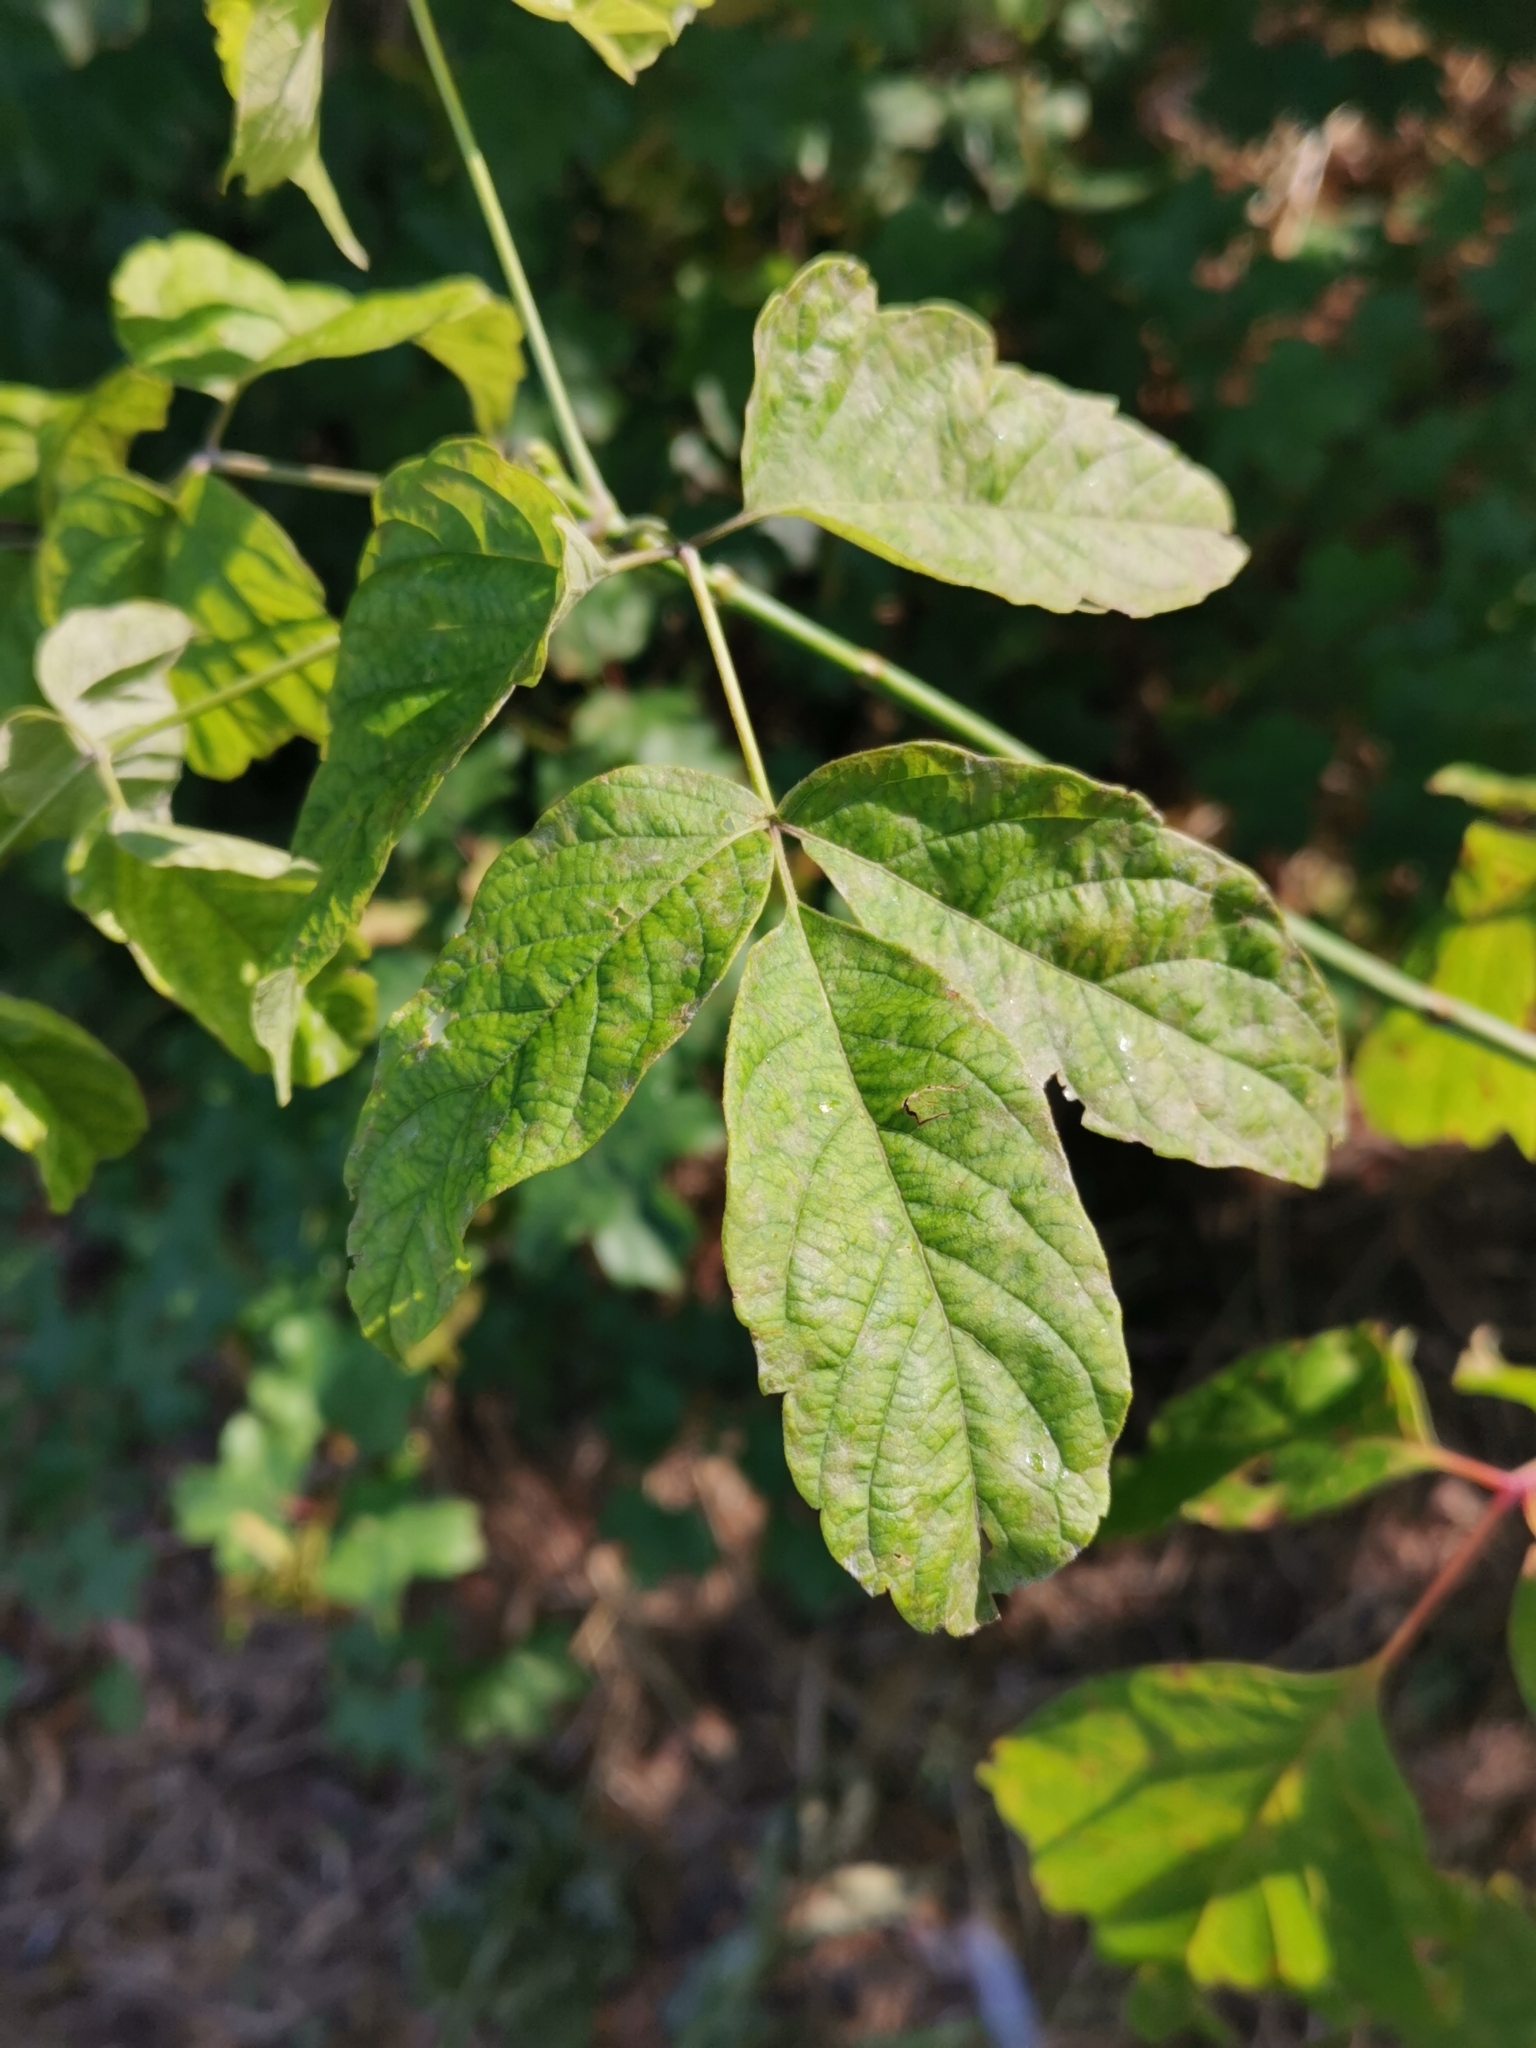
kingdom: Plantae
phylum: Tracheophyta
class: Magnoliopsida
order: Sapindales
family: Sapindaceae
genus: Acer
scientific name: Acer negundo
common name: Ashleaf maple
